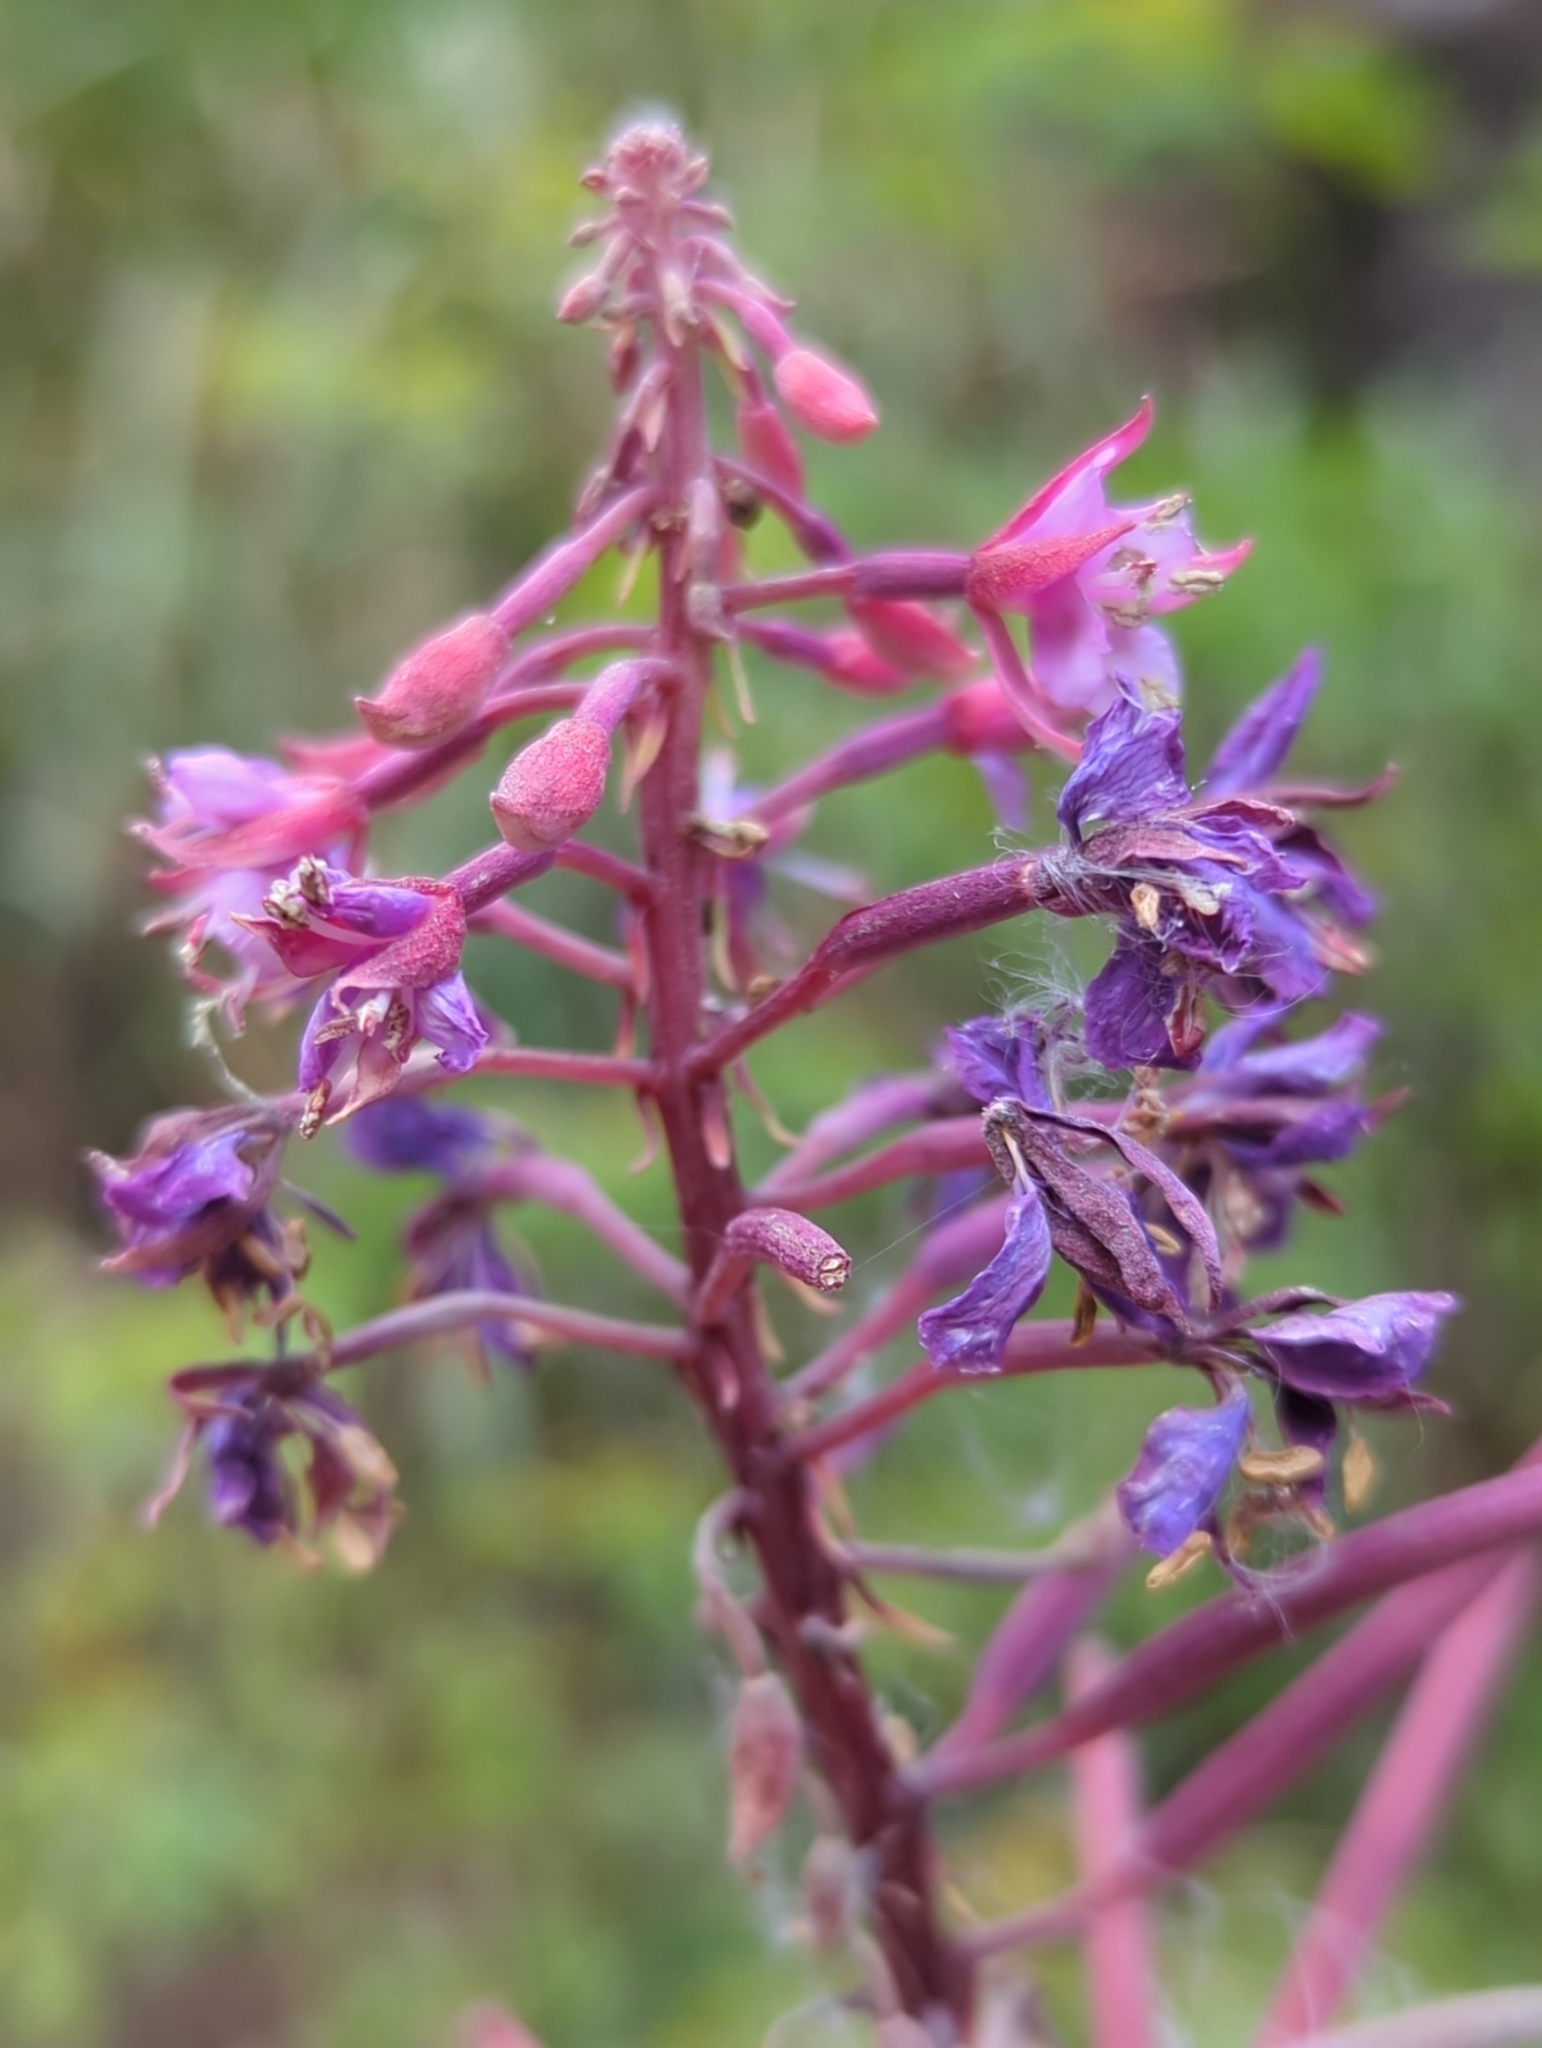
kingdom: Plantae
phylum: Tracheophyta
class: Magnoliopsida
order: Myrtales
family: Onagraceae
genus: Chamaenerion
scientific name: Chamaenerion angustifolium
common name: Fireweed
